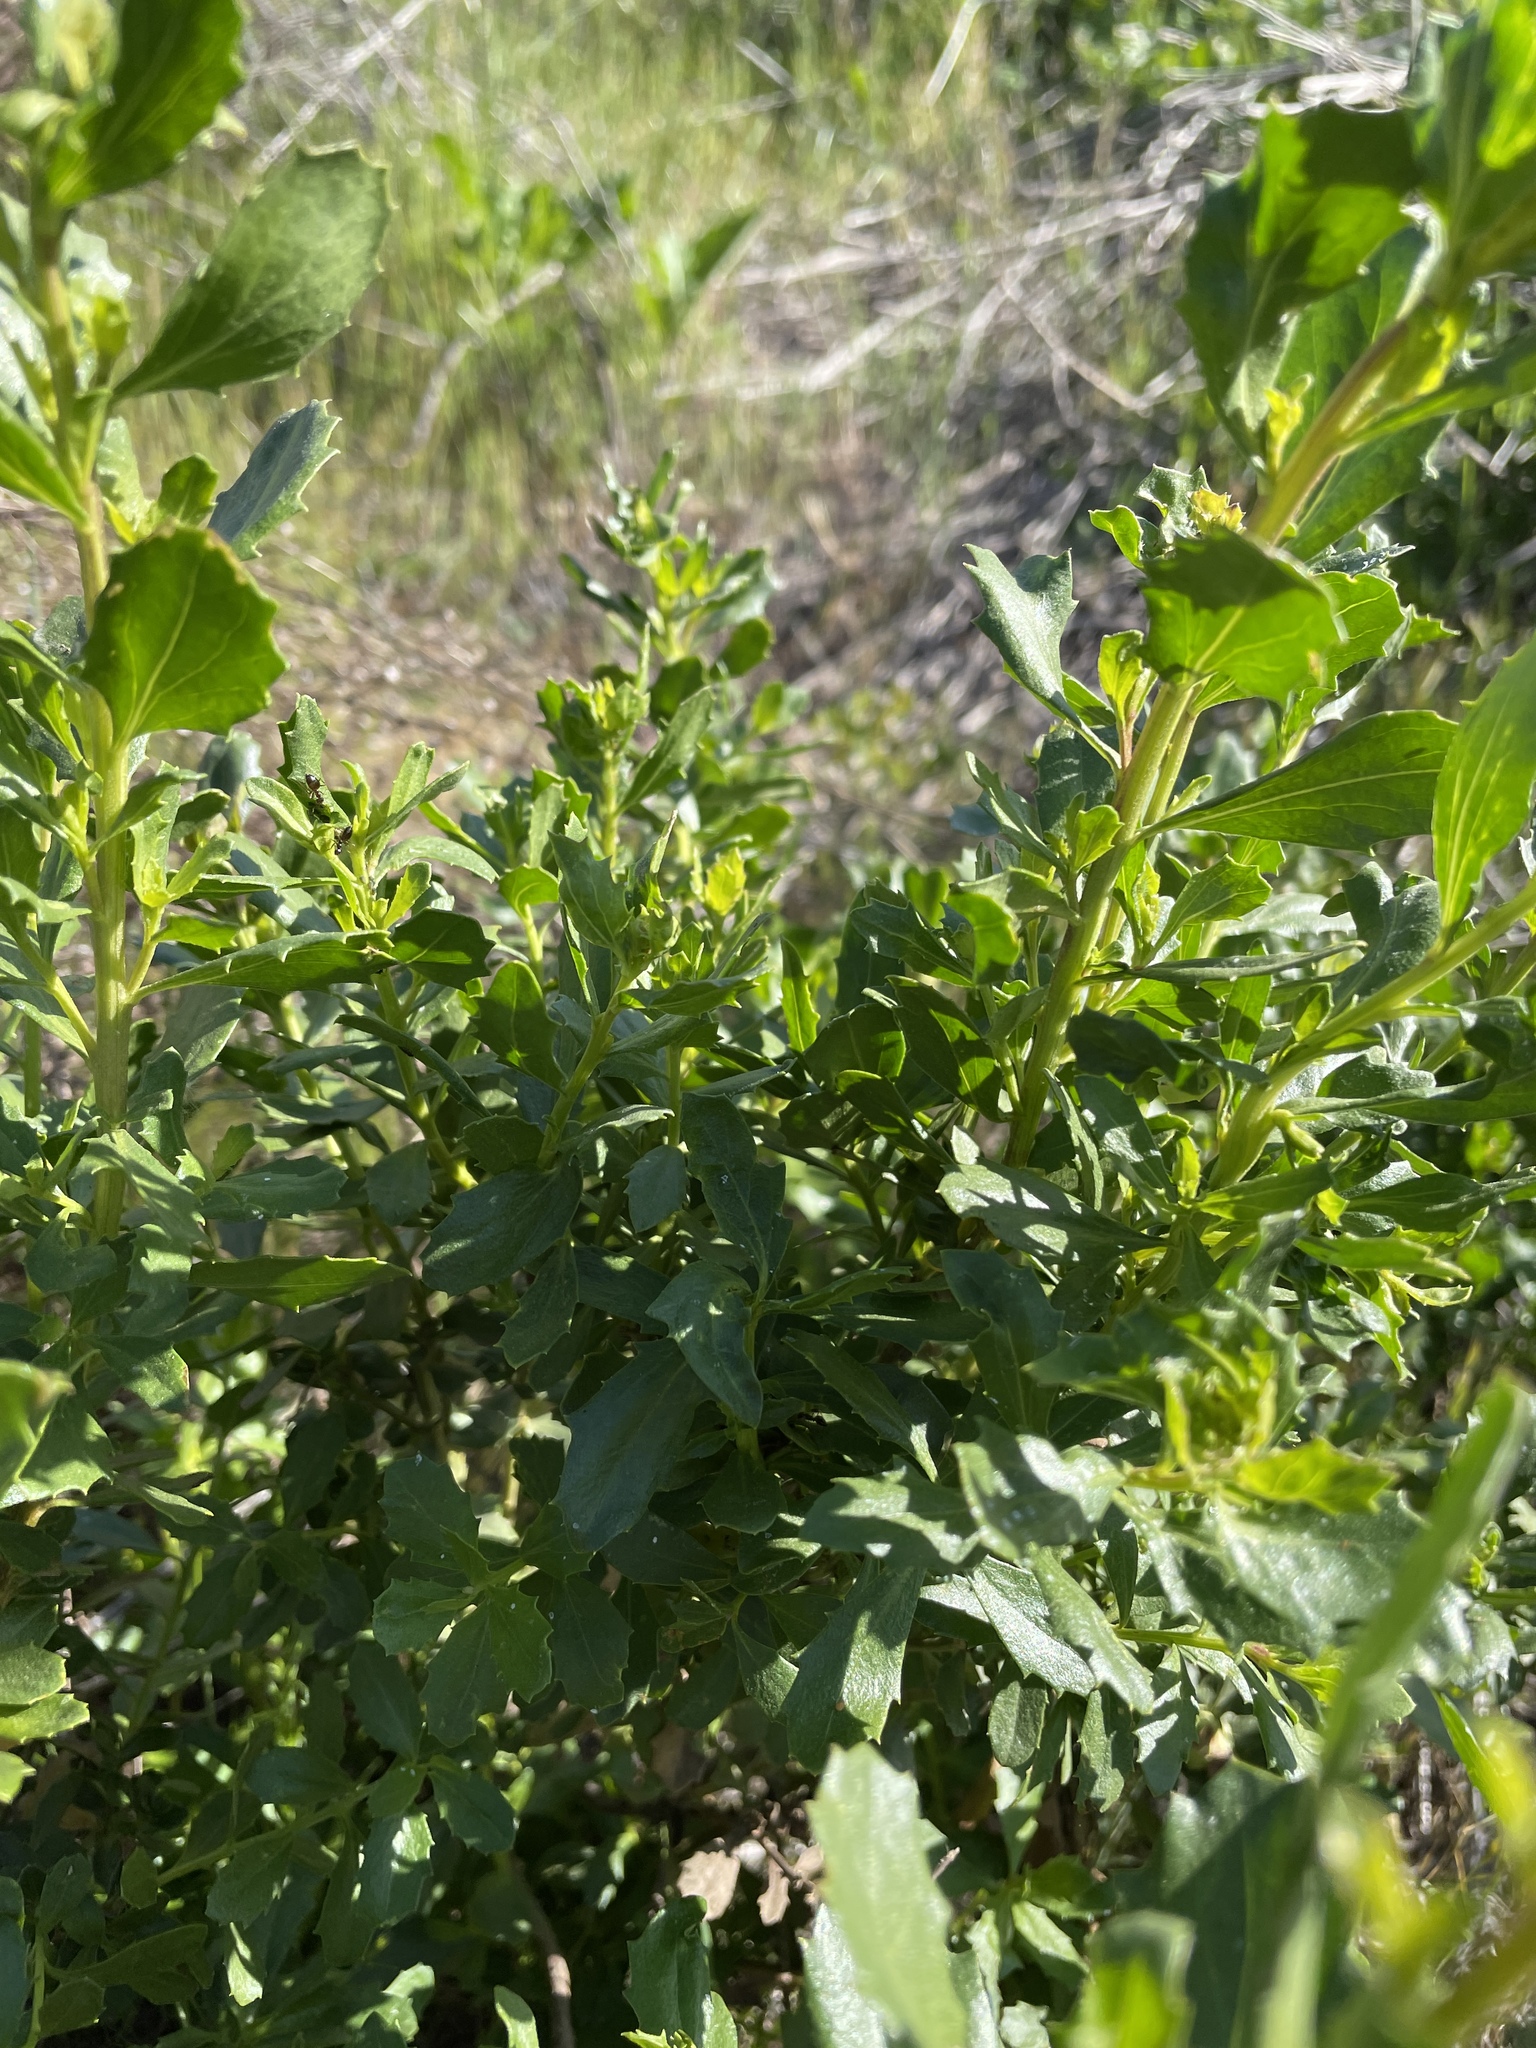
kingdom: Plantae
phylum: Tracheophyta
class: Magnoliopsida
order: Asterales
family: Asteraceae
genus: Baccharis
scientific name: Baccharis pilularis
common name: Coyotebrush
